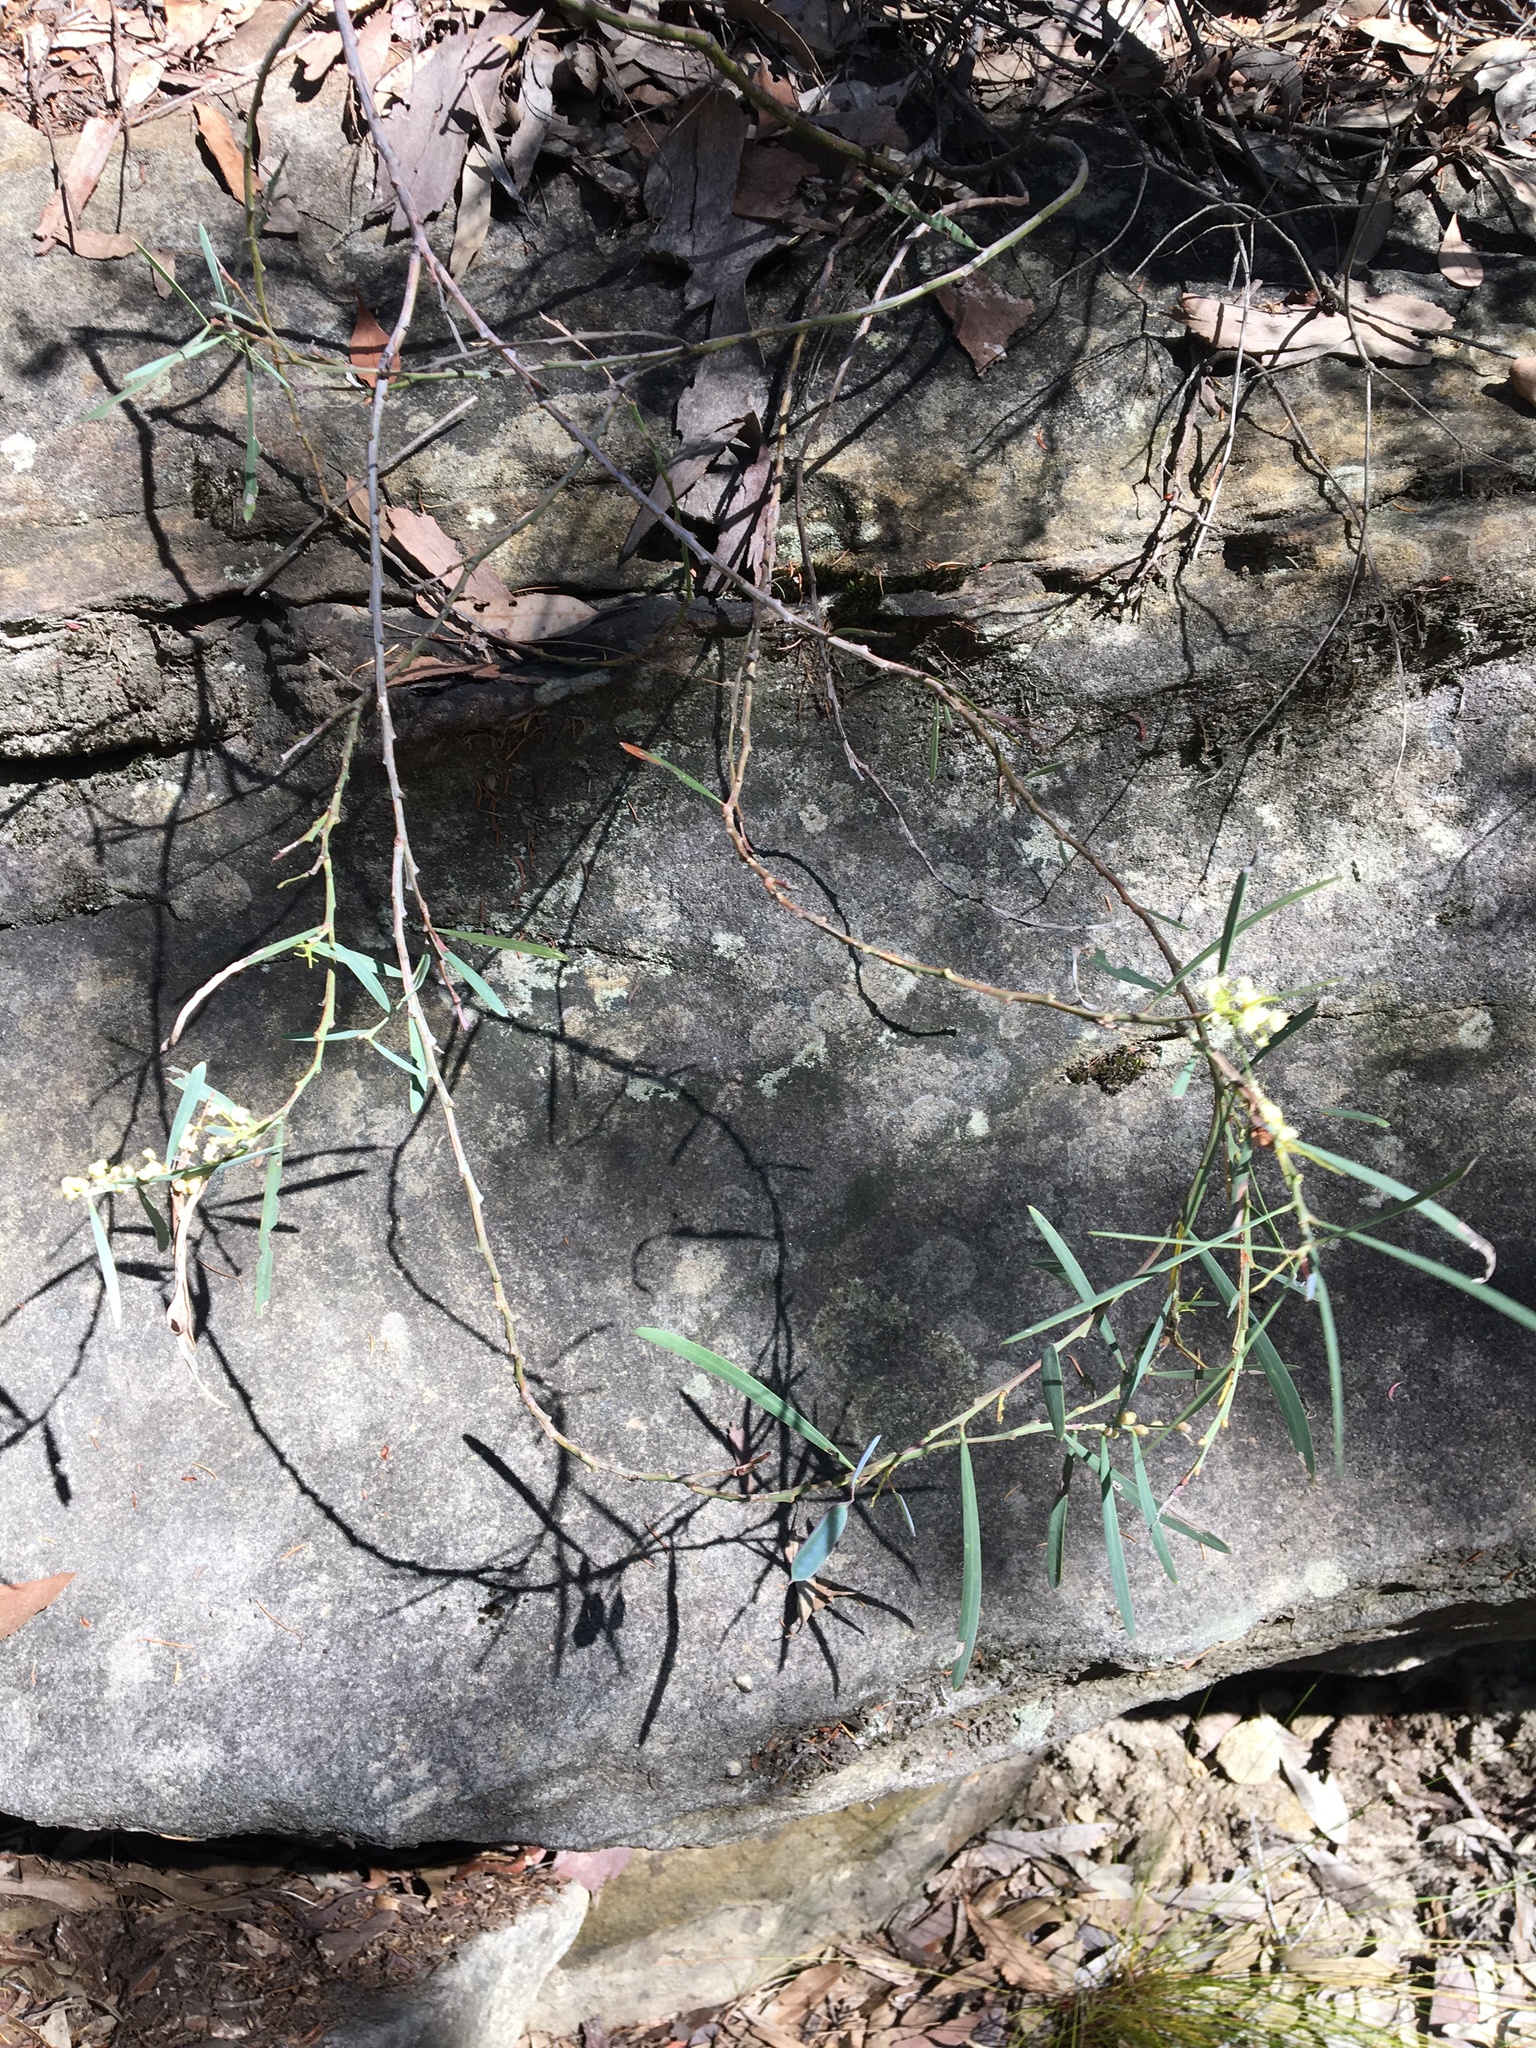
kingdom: Plantae
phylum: Tracheophyta
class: Magnoliopsida
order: Fabales
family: Fabaceae
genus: Acacia
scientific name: Acacia suaveolens
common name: Sweet acacia
